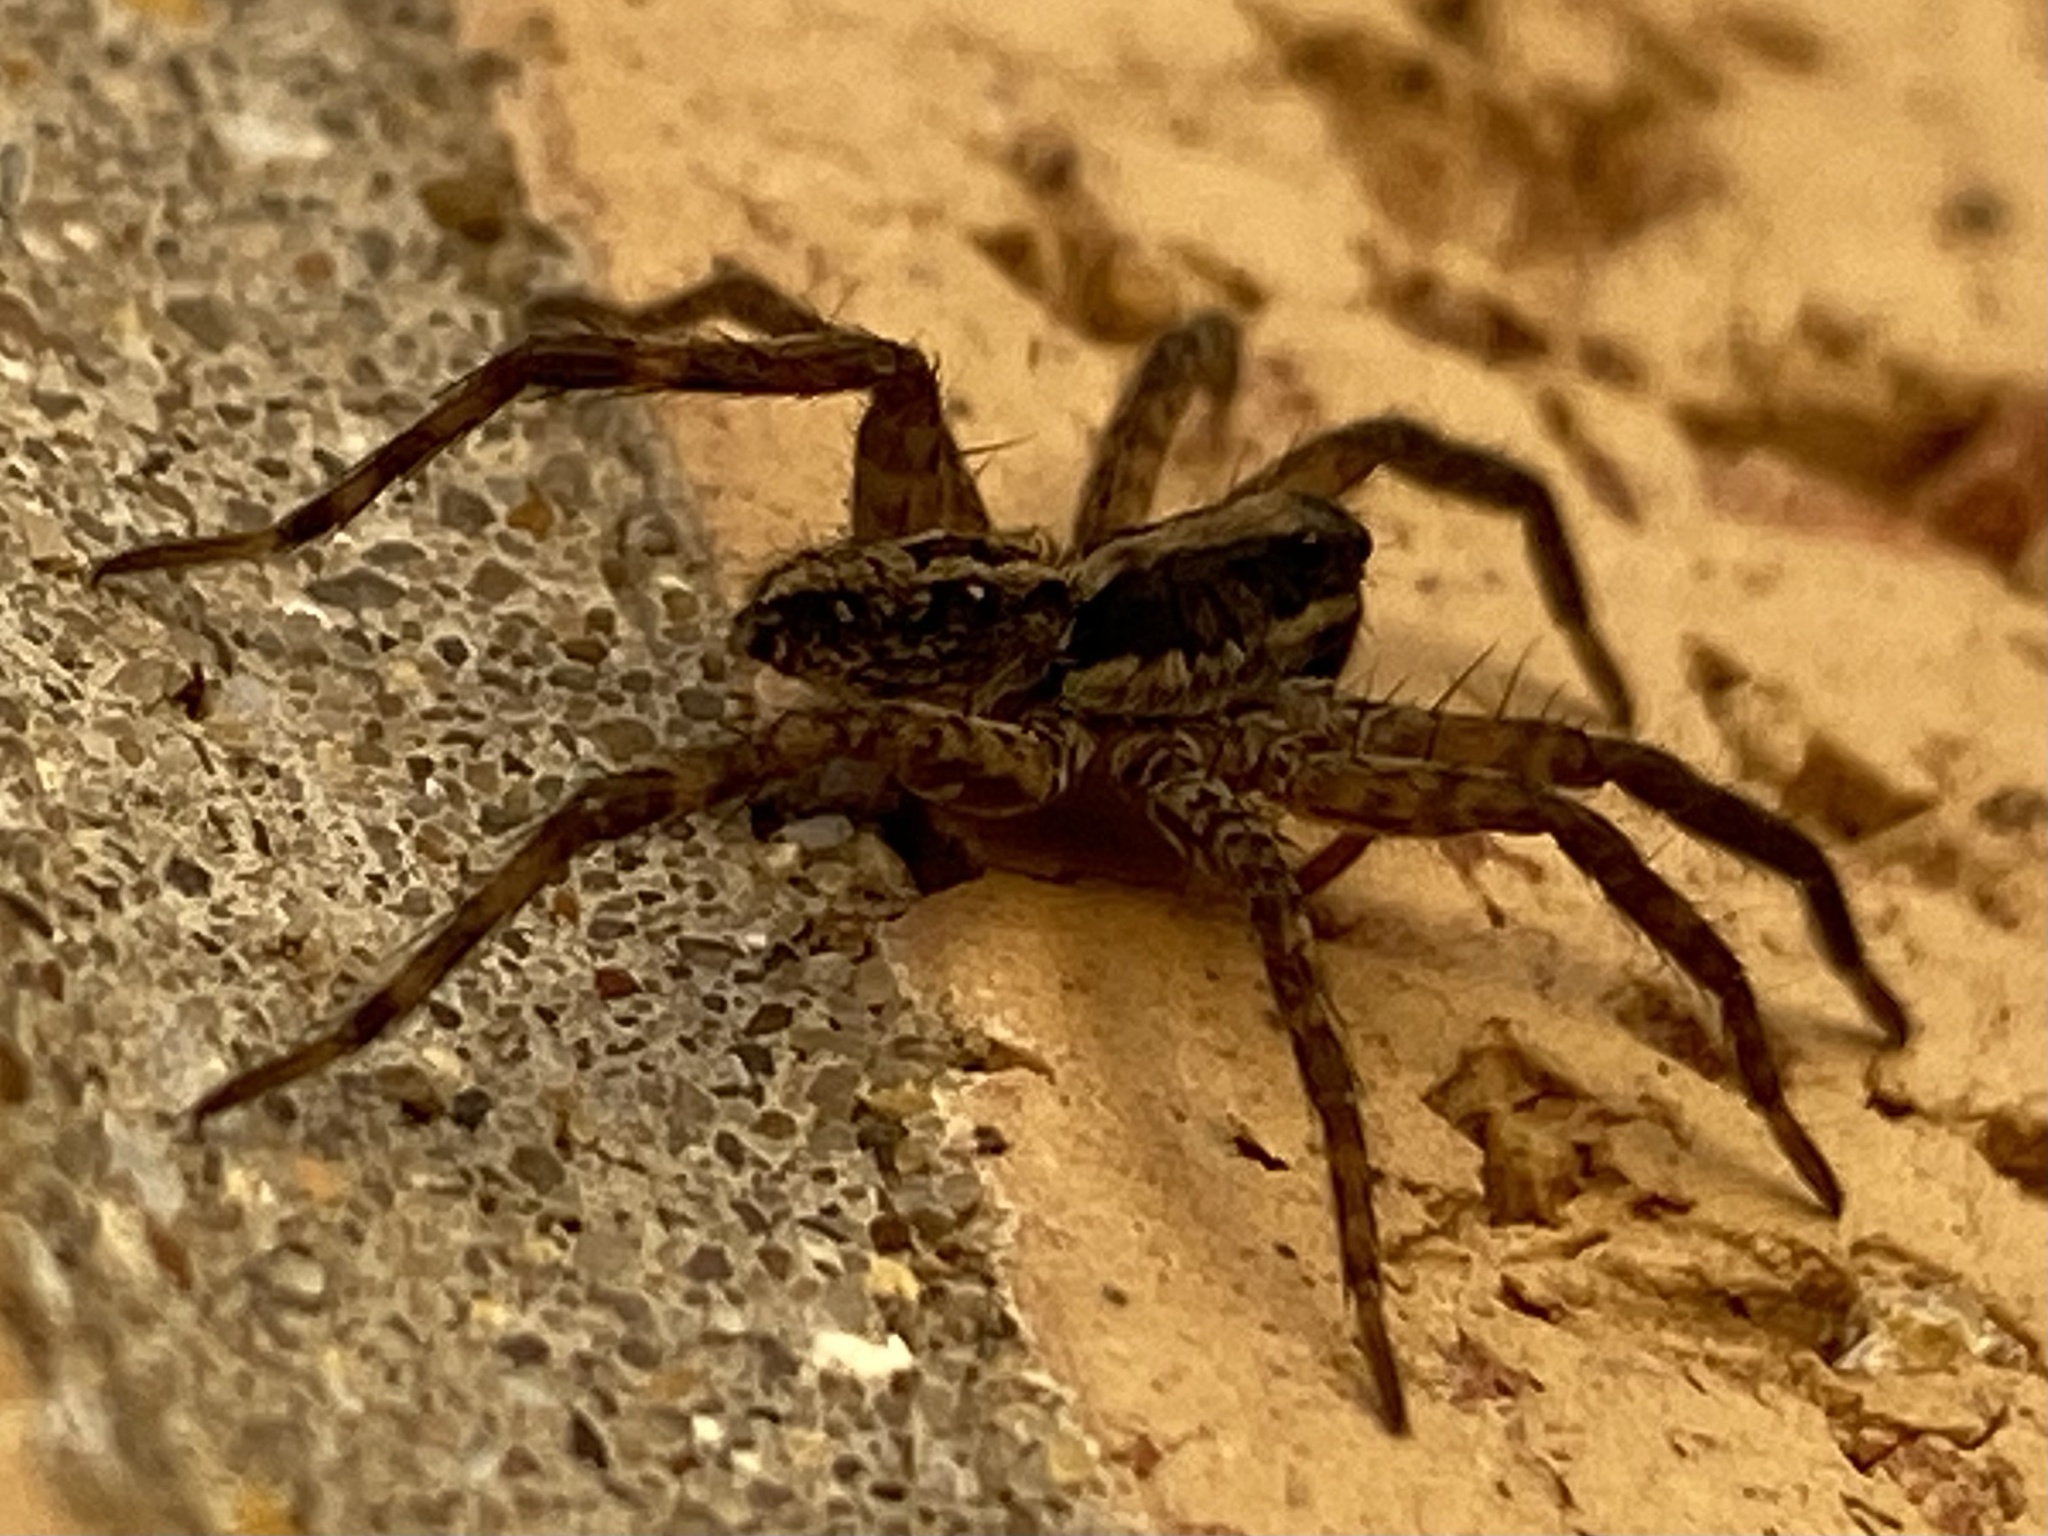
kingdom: Animalia
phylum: Arthropoda
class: Arachnida
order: Araneae
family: Lycosidae
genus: Schizocosa
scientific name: Schizocosa avida
